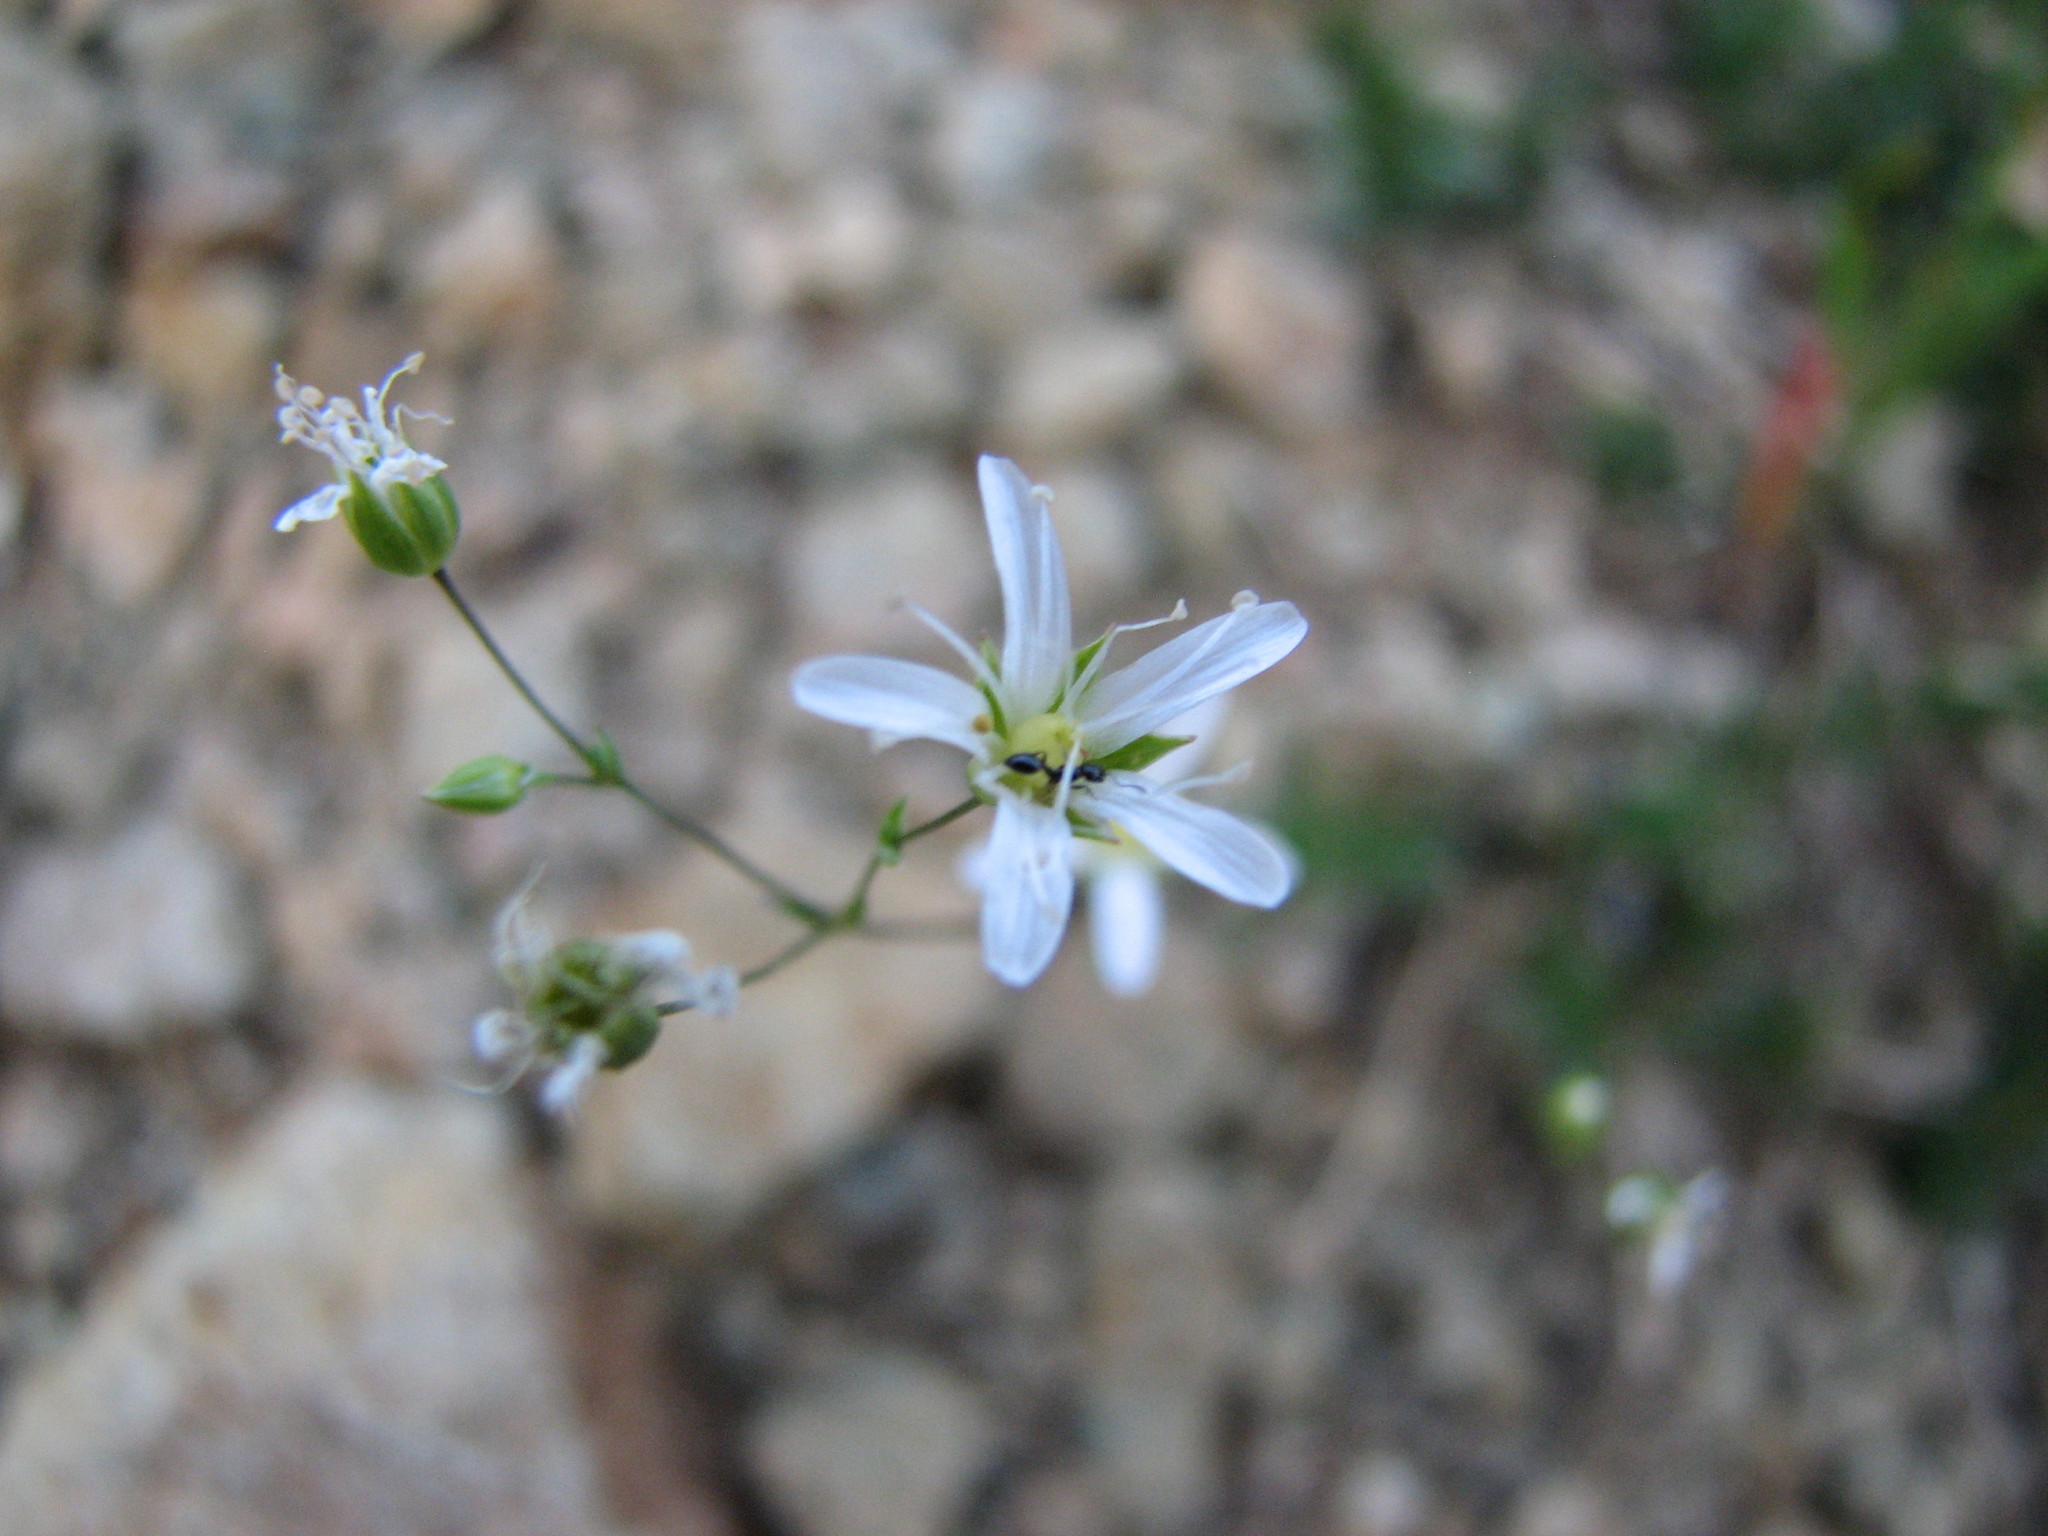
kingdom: Plantae
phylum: Tracheophyta
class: Magnoliopsida
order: Caryophyllales
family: Caryophyllaceae
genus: Sabulina
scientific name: Sabulina michauxii
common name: Michaux's stitchwort
